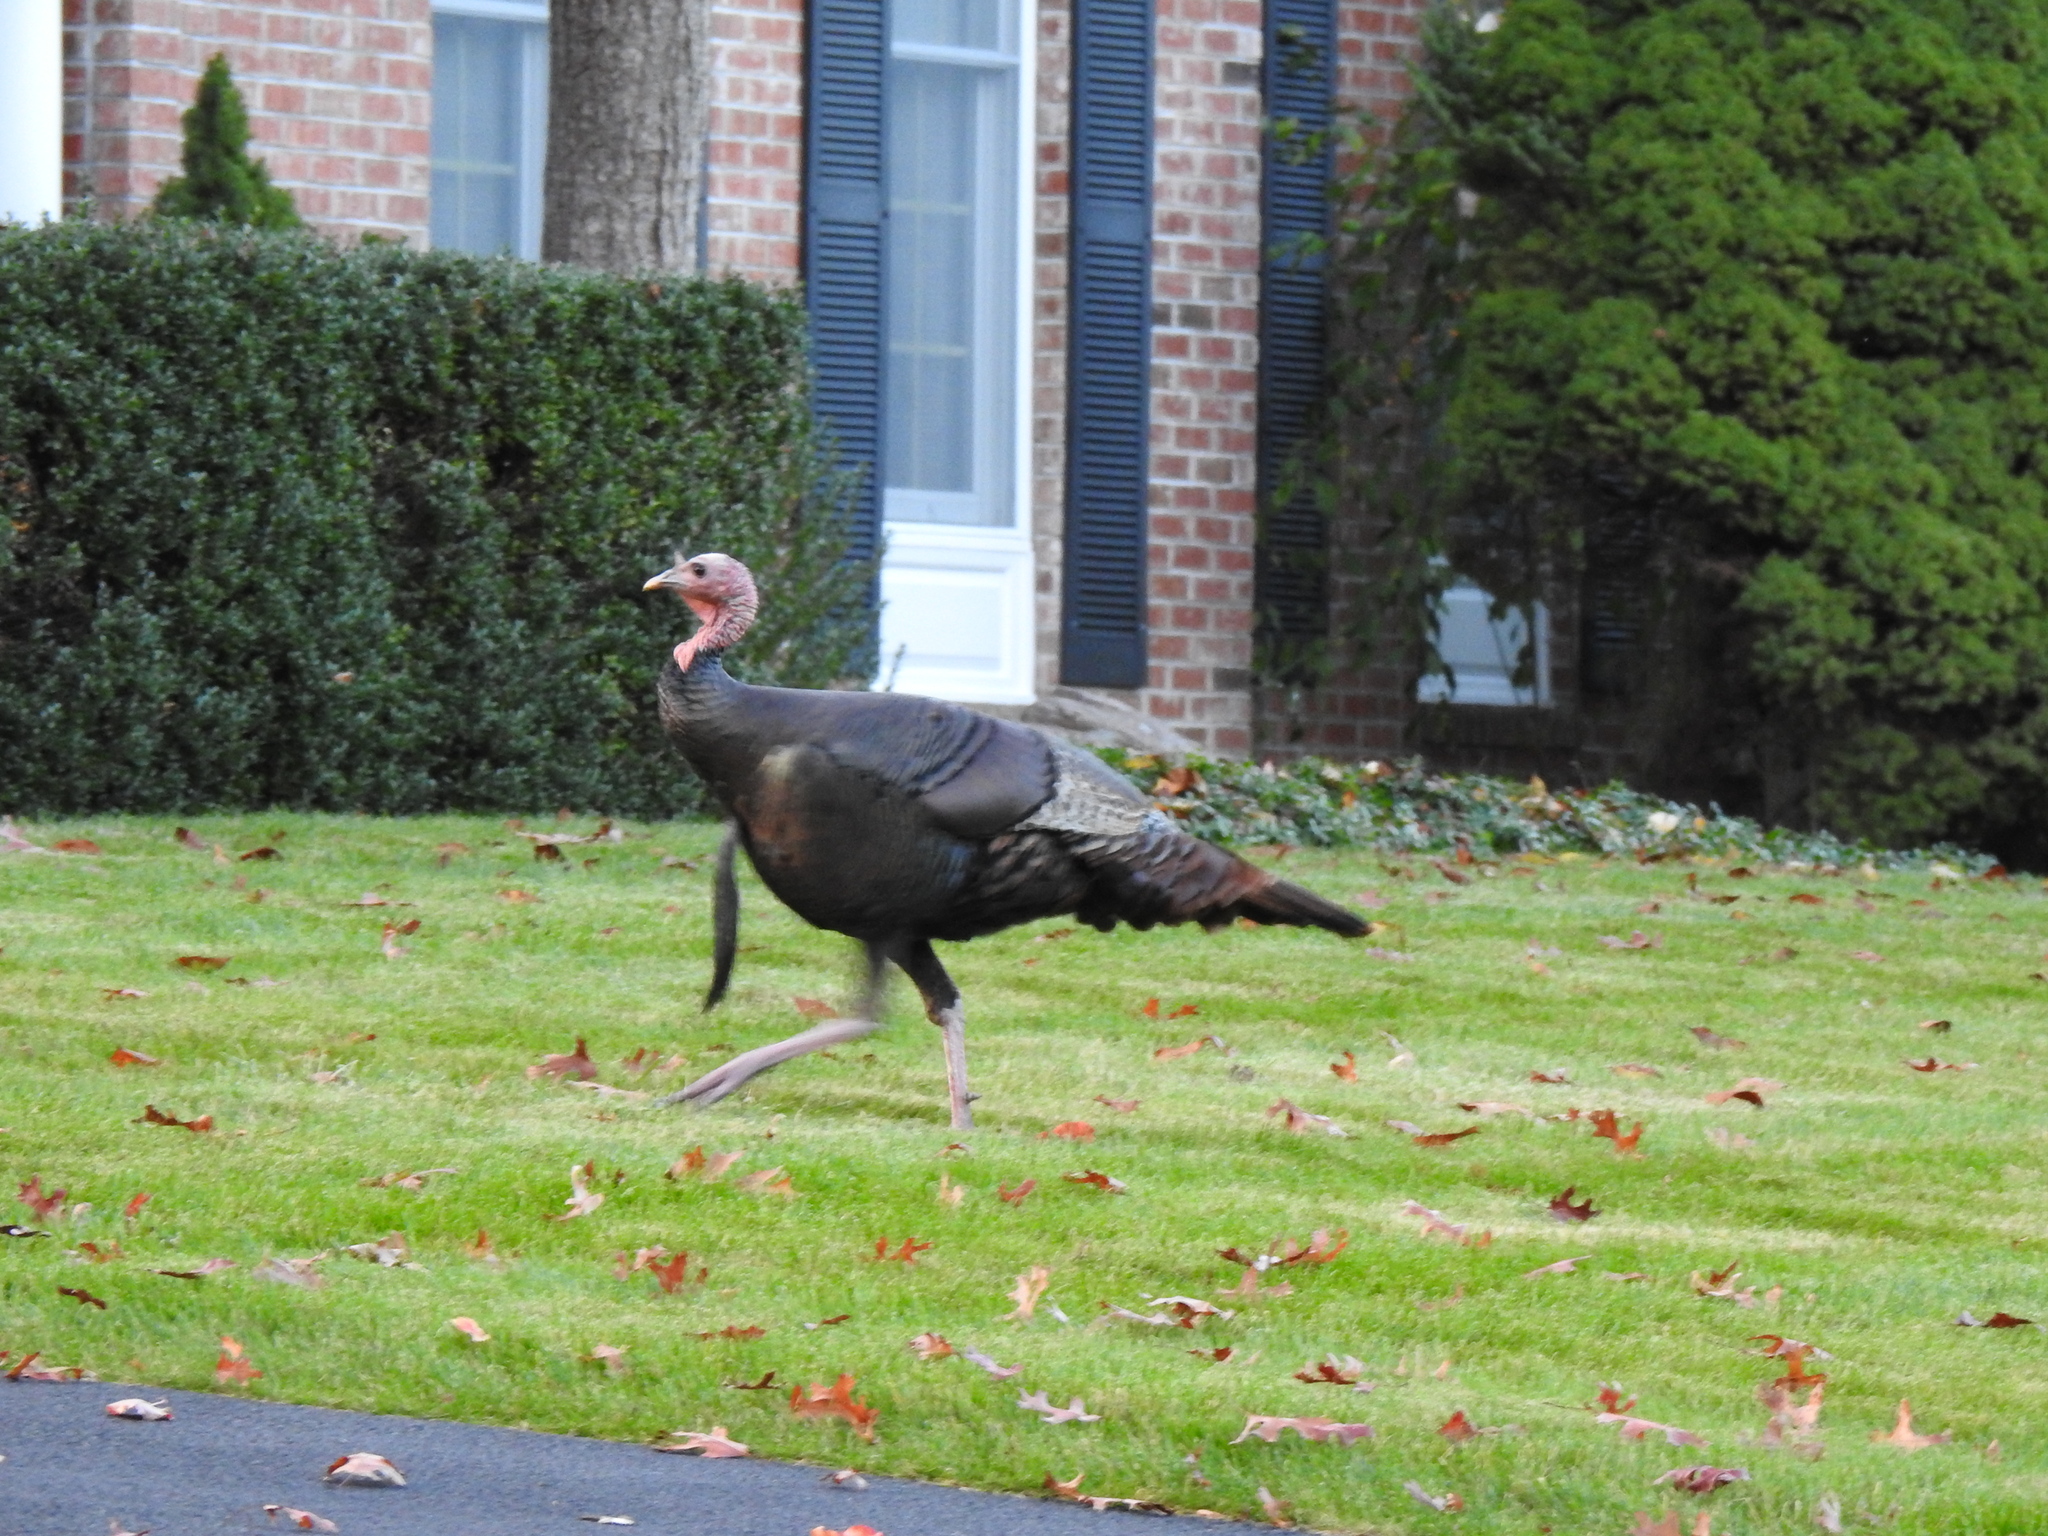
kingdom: Animalia
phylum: Chordata
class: Aves
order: Galliformes
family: Phasianidae
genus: Meleagris
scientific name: Meleagris gallopavo
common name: Wild turkey
